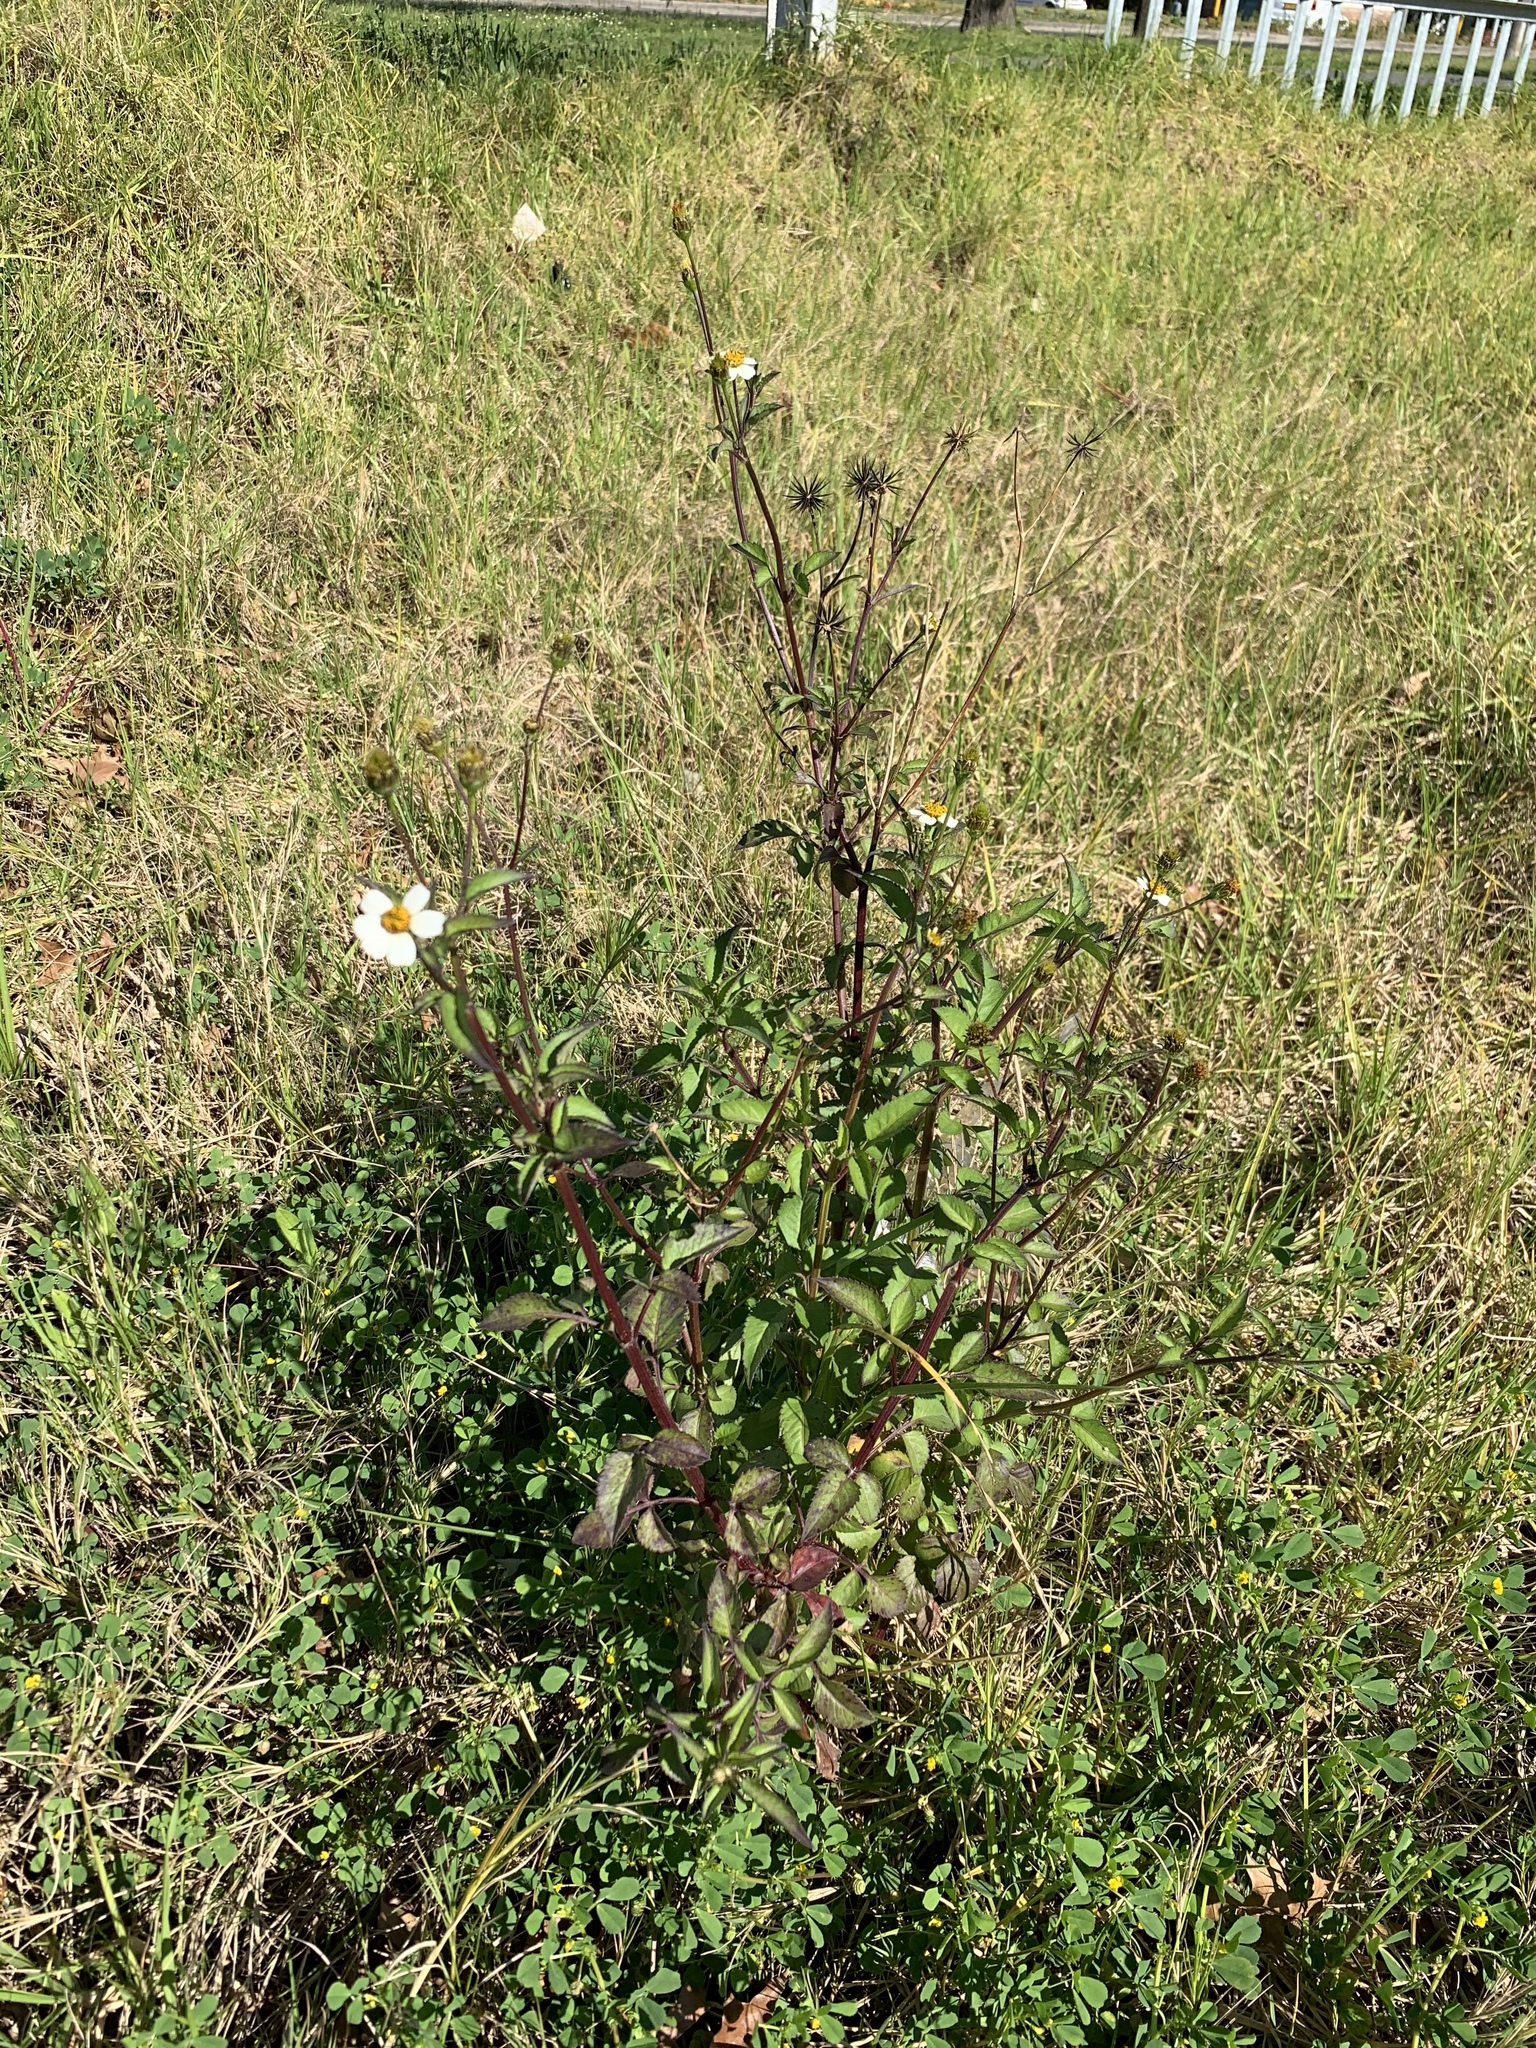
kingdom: Plantae
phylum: Tracheophyta
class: Magnoliopsida
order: Asterales
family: Asteraceae
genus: Bidens
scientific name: Bidens pilosa
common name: Black-jack
